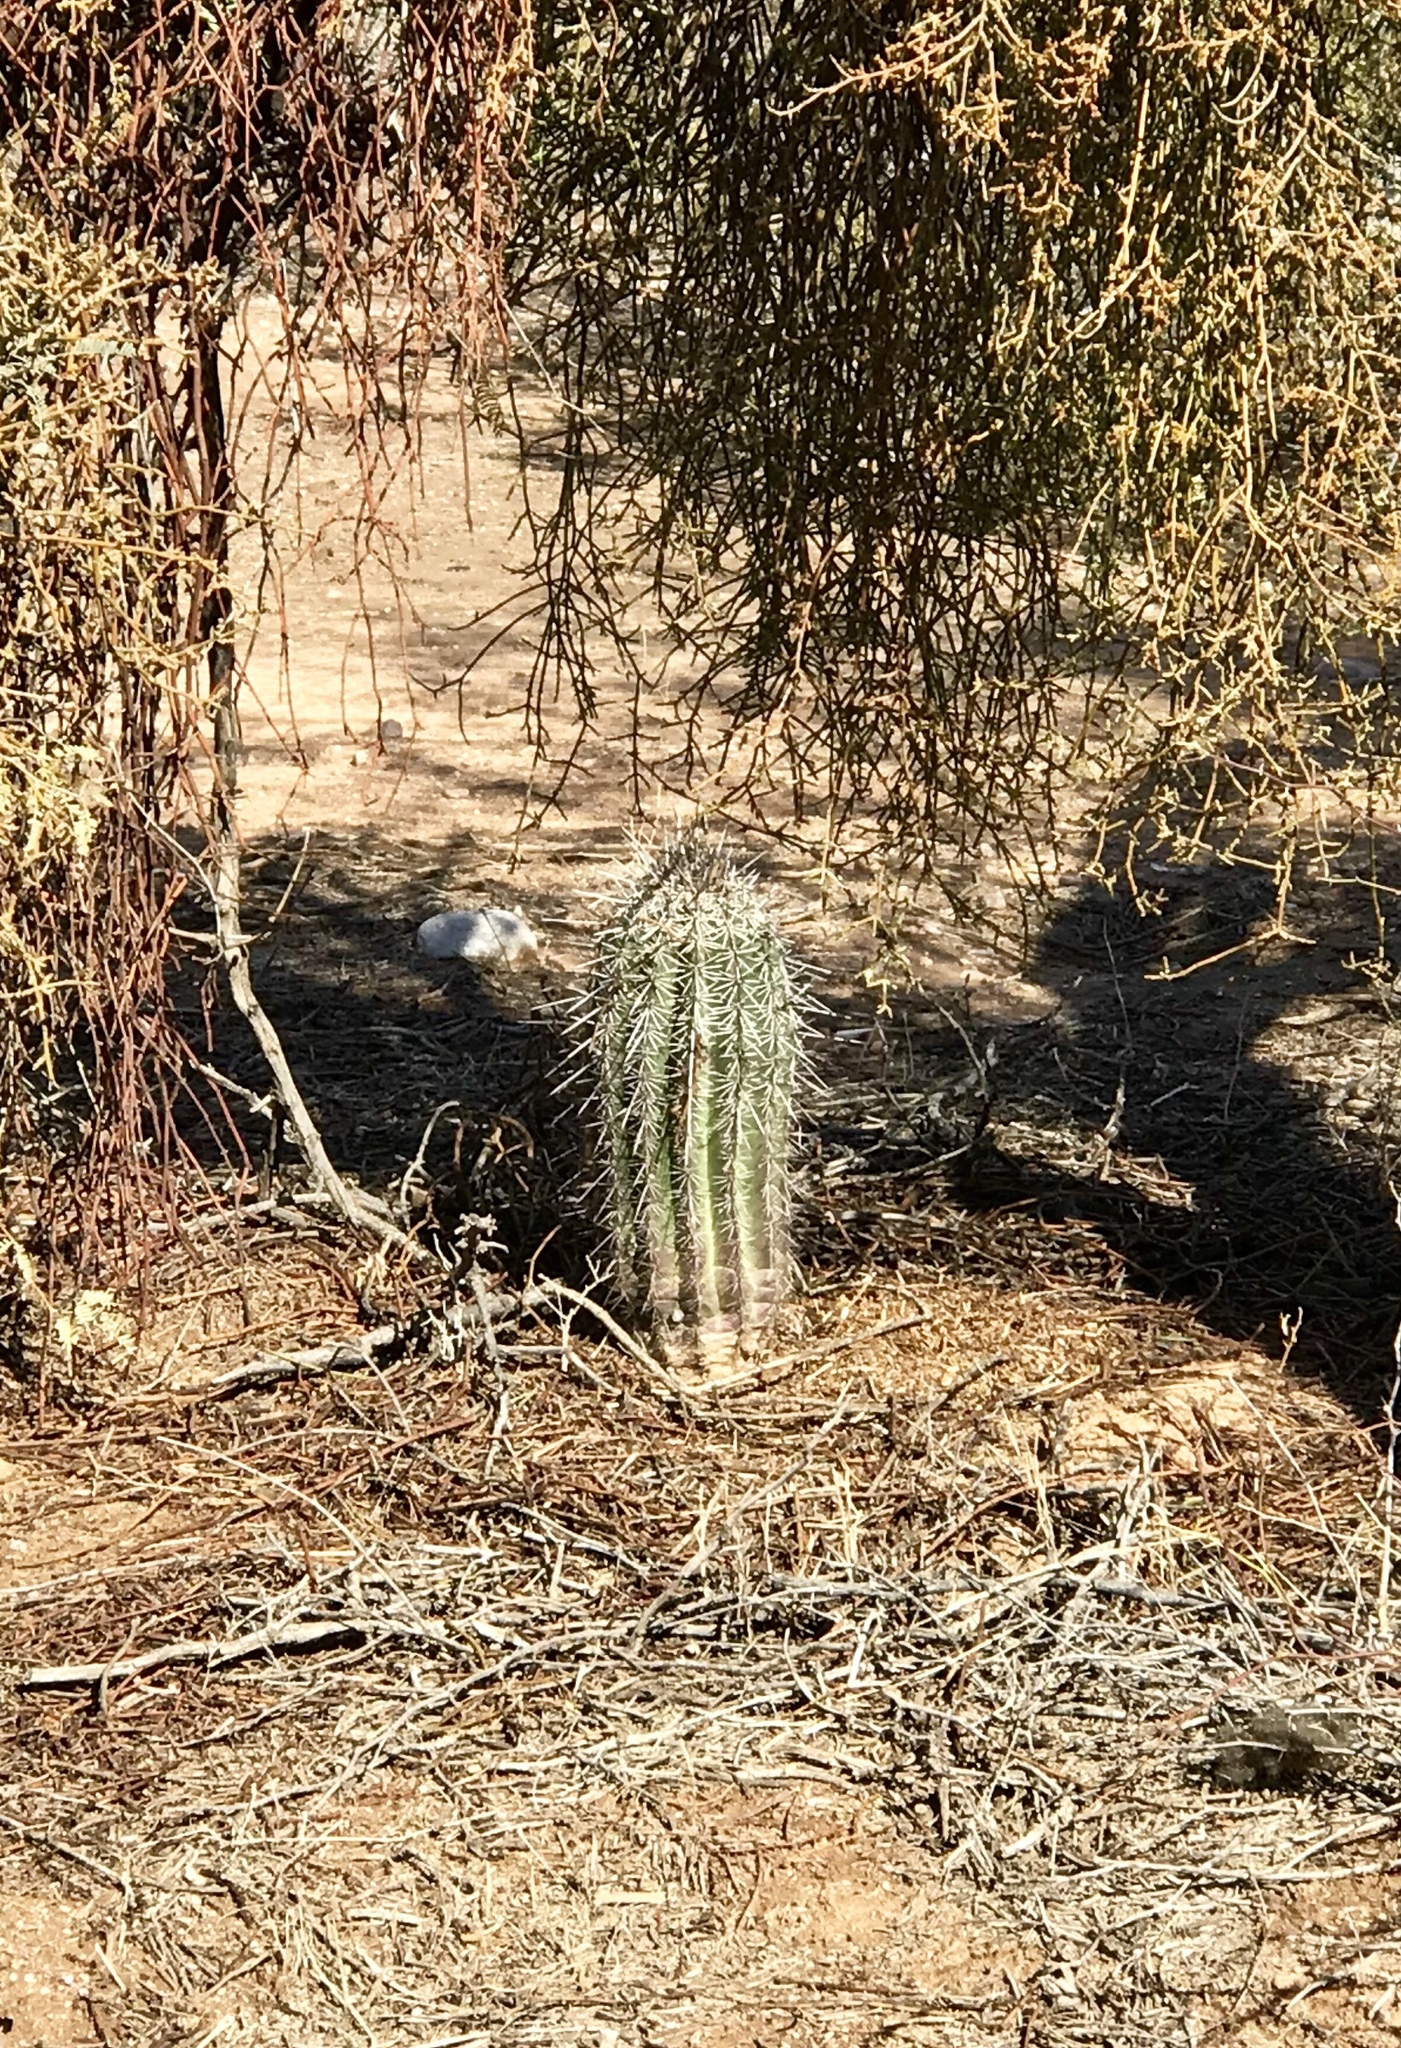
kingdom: Plantae
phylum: Tracheophyta
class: Magnoliopsida
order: Caryophyllales
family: Cactaceae
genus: Carnegiea
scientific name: Carnegiea gigantea
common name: Saguaro
